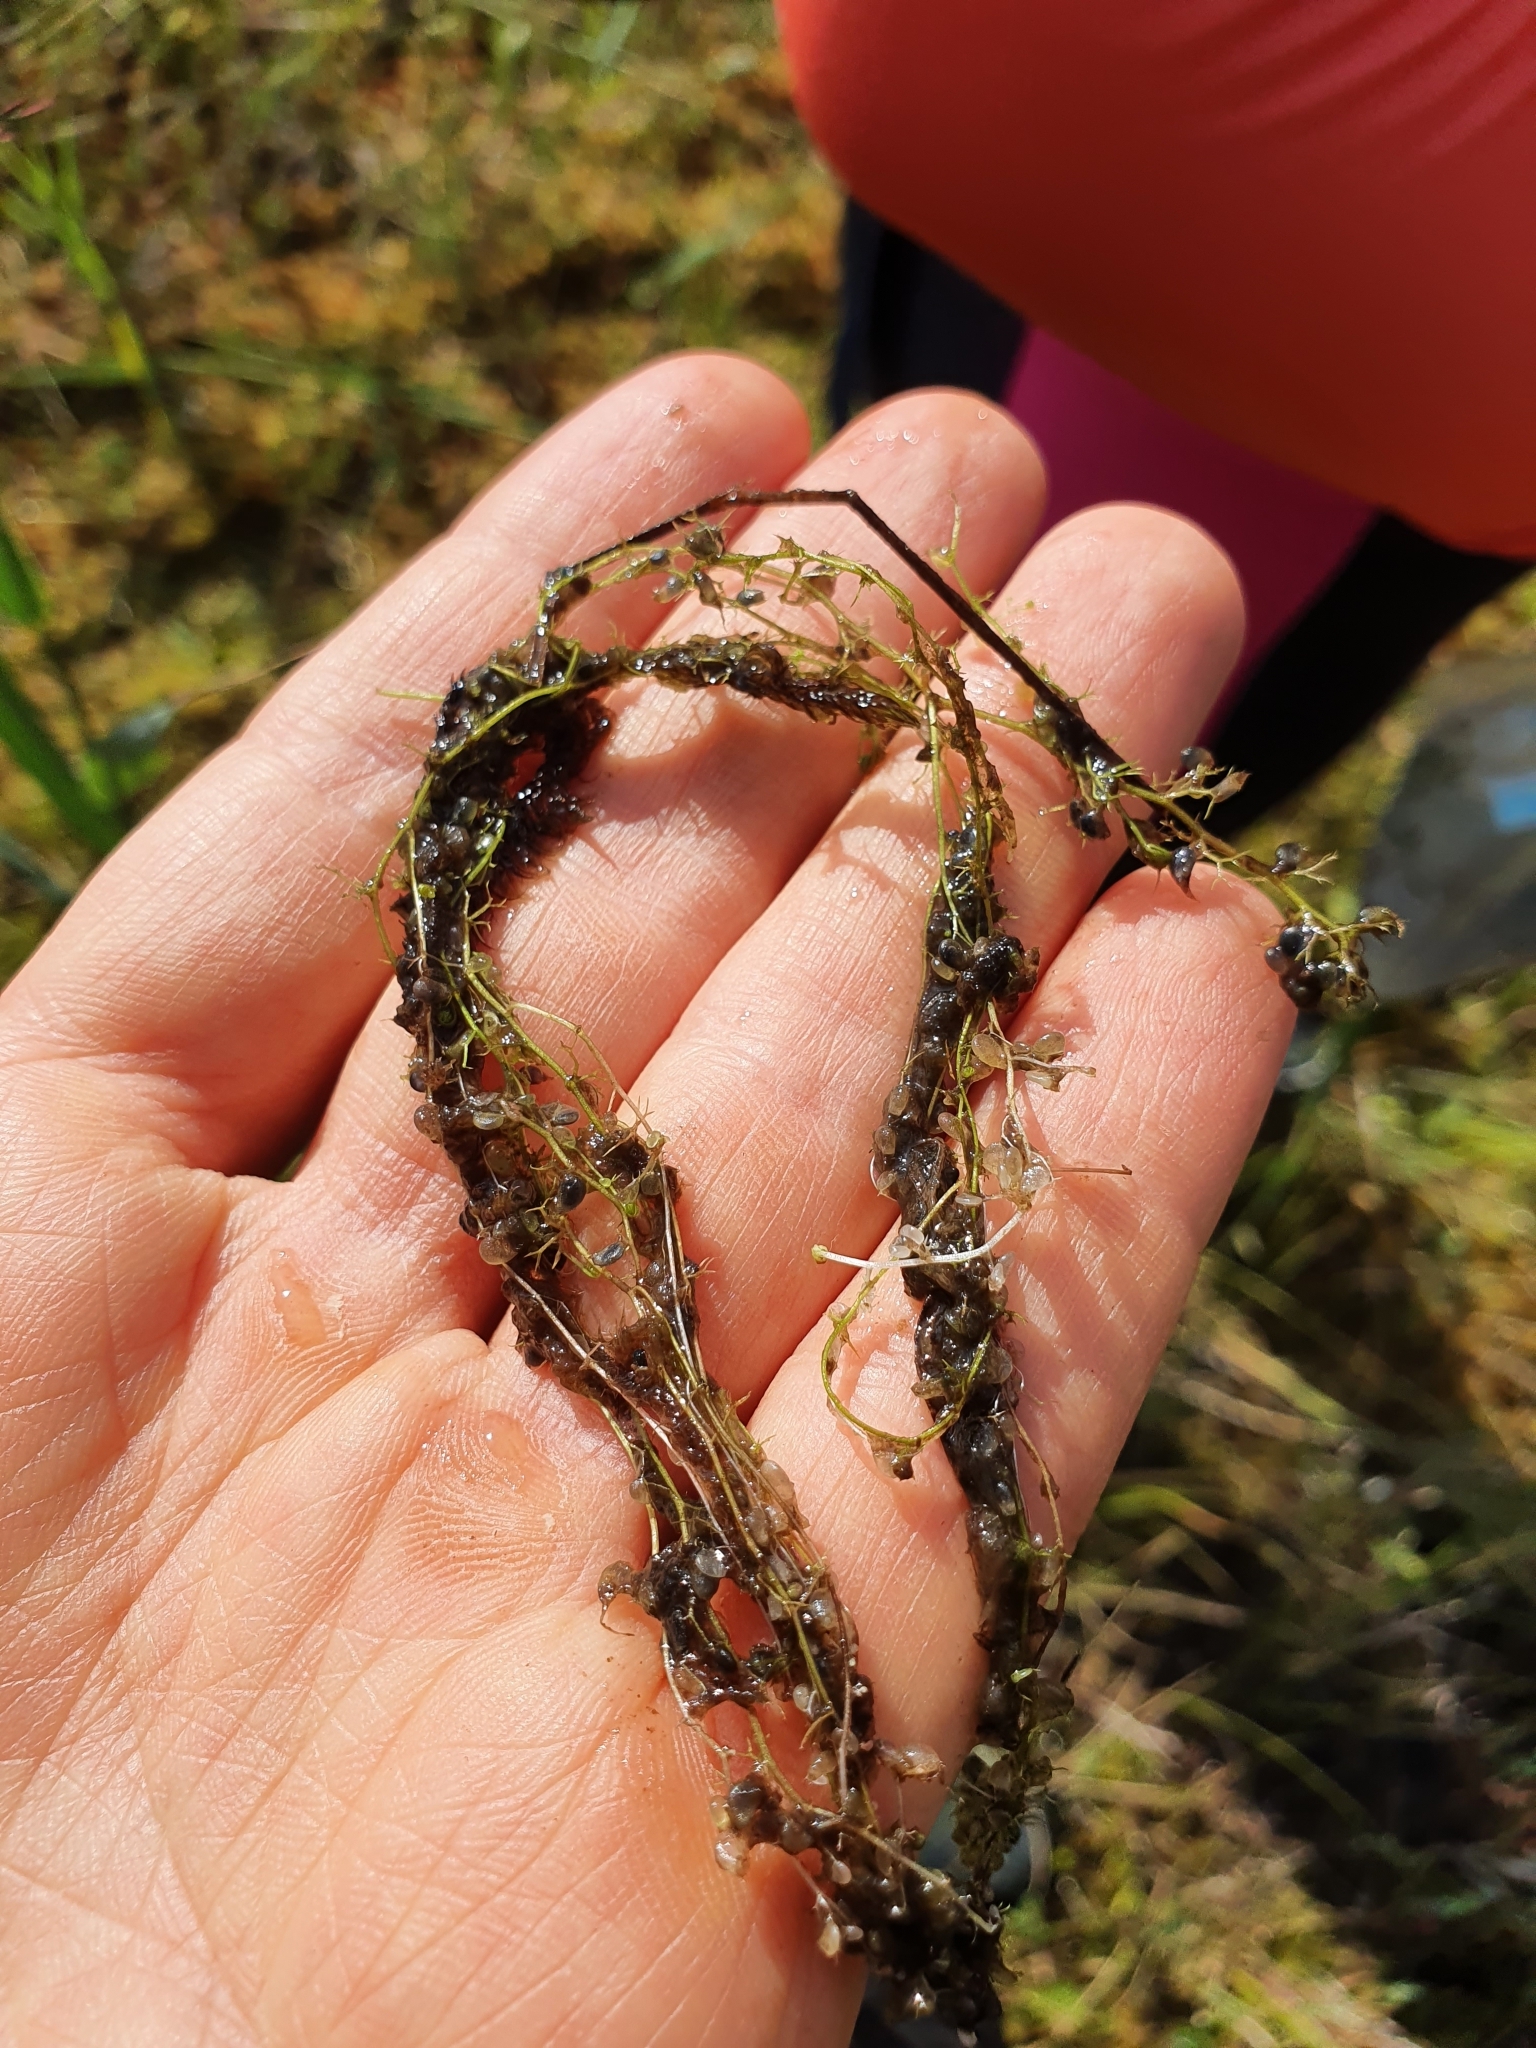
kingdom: Plantae
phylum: Tracheophyta
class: Magnoliopsida
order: Lamiales
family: Lentibulariaceae
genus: Utricularia
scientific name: Utricularia minor
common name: Lesser bladderwort
